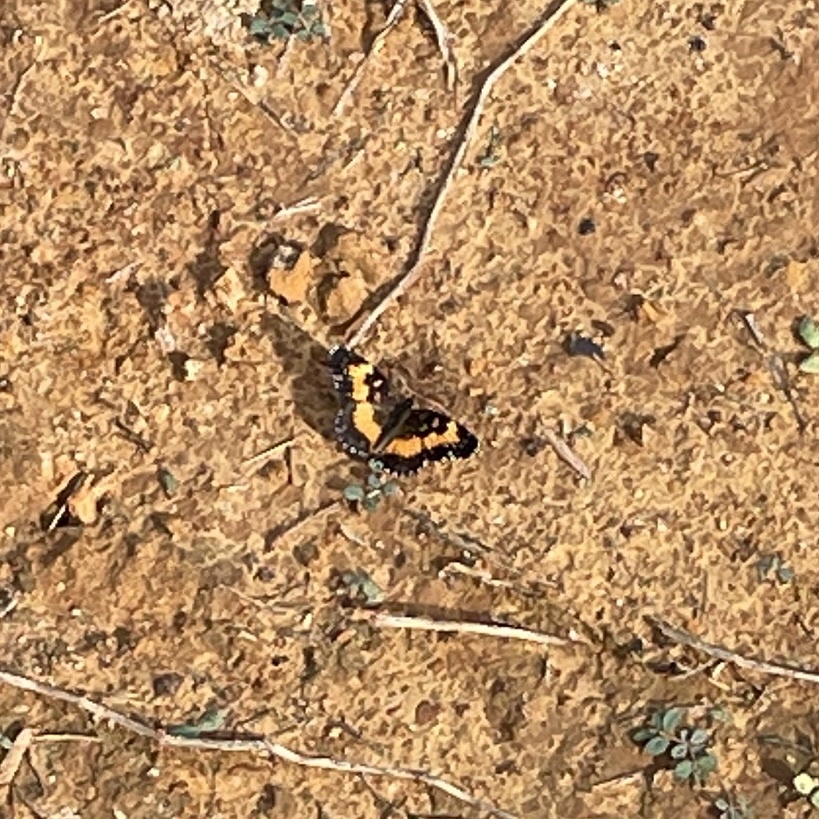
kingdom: Animalia
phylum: Arthropoda
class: Insecta
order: Lepidoptera
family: Nymphalidae
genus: Chlosyne
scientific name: Chlosyne lacinia
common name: Bordered patch
